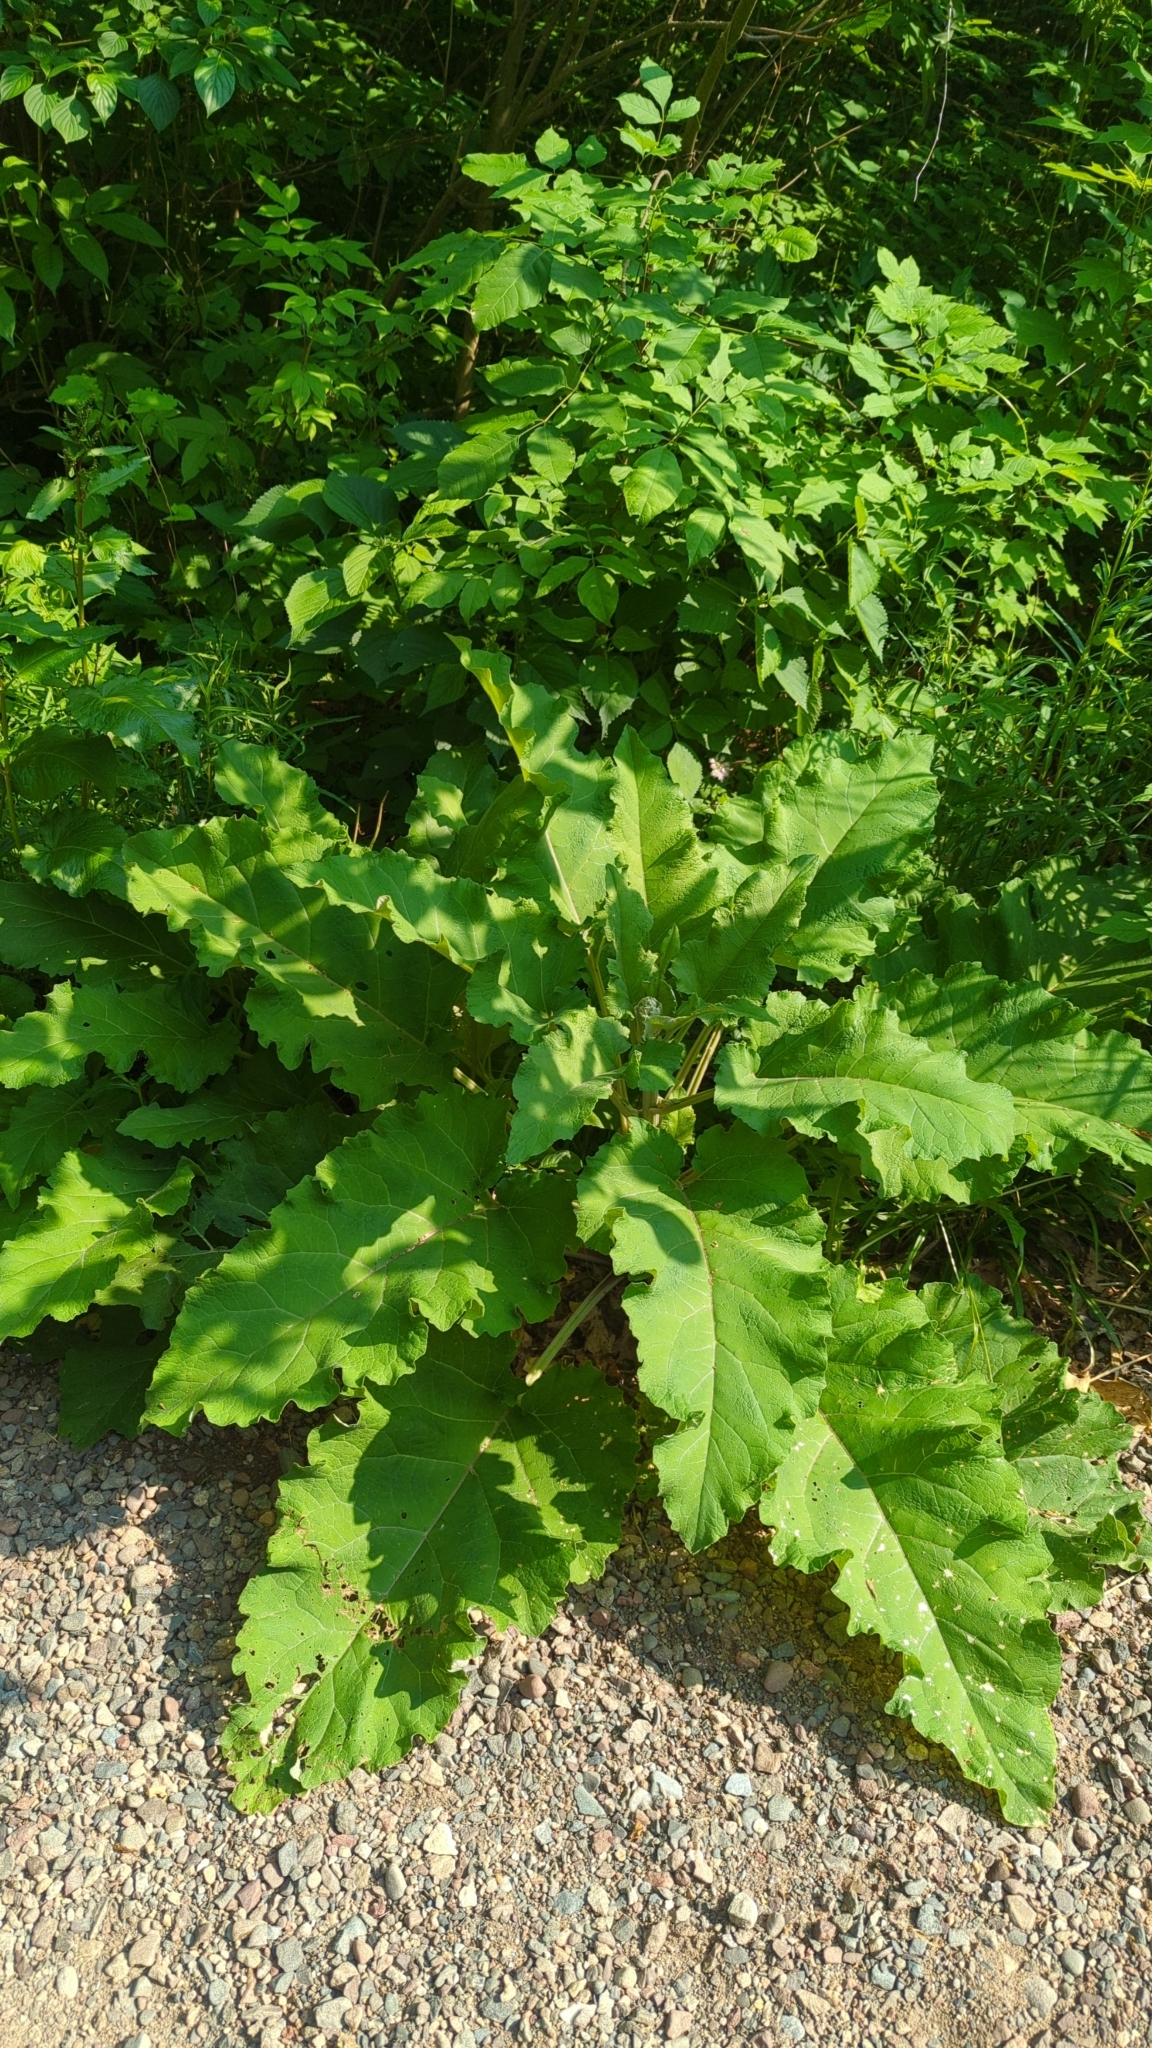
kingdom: Plantae
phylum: Tracheophyta
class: Magnoliopsida
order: Asterales
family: Asteraceae
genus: Arctium
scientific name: Arctium
